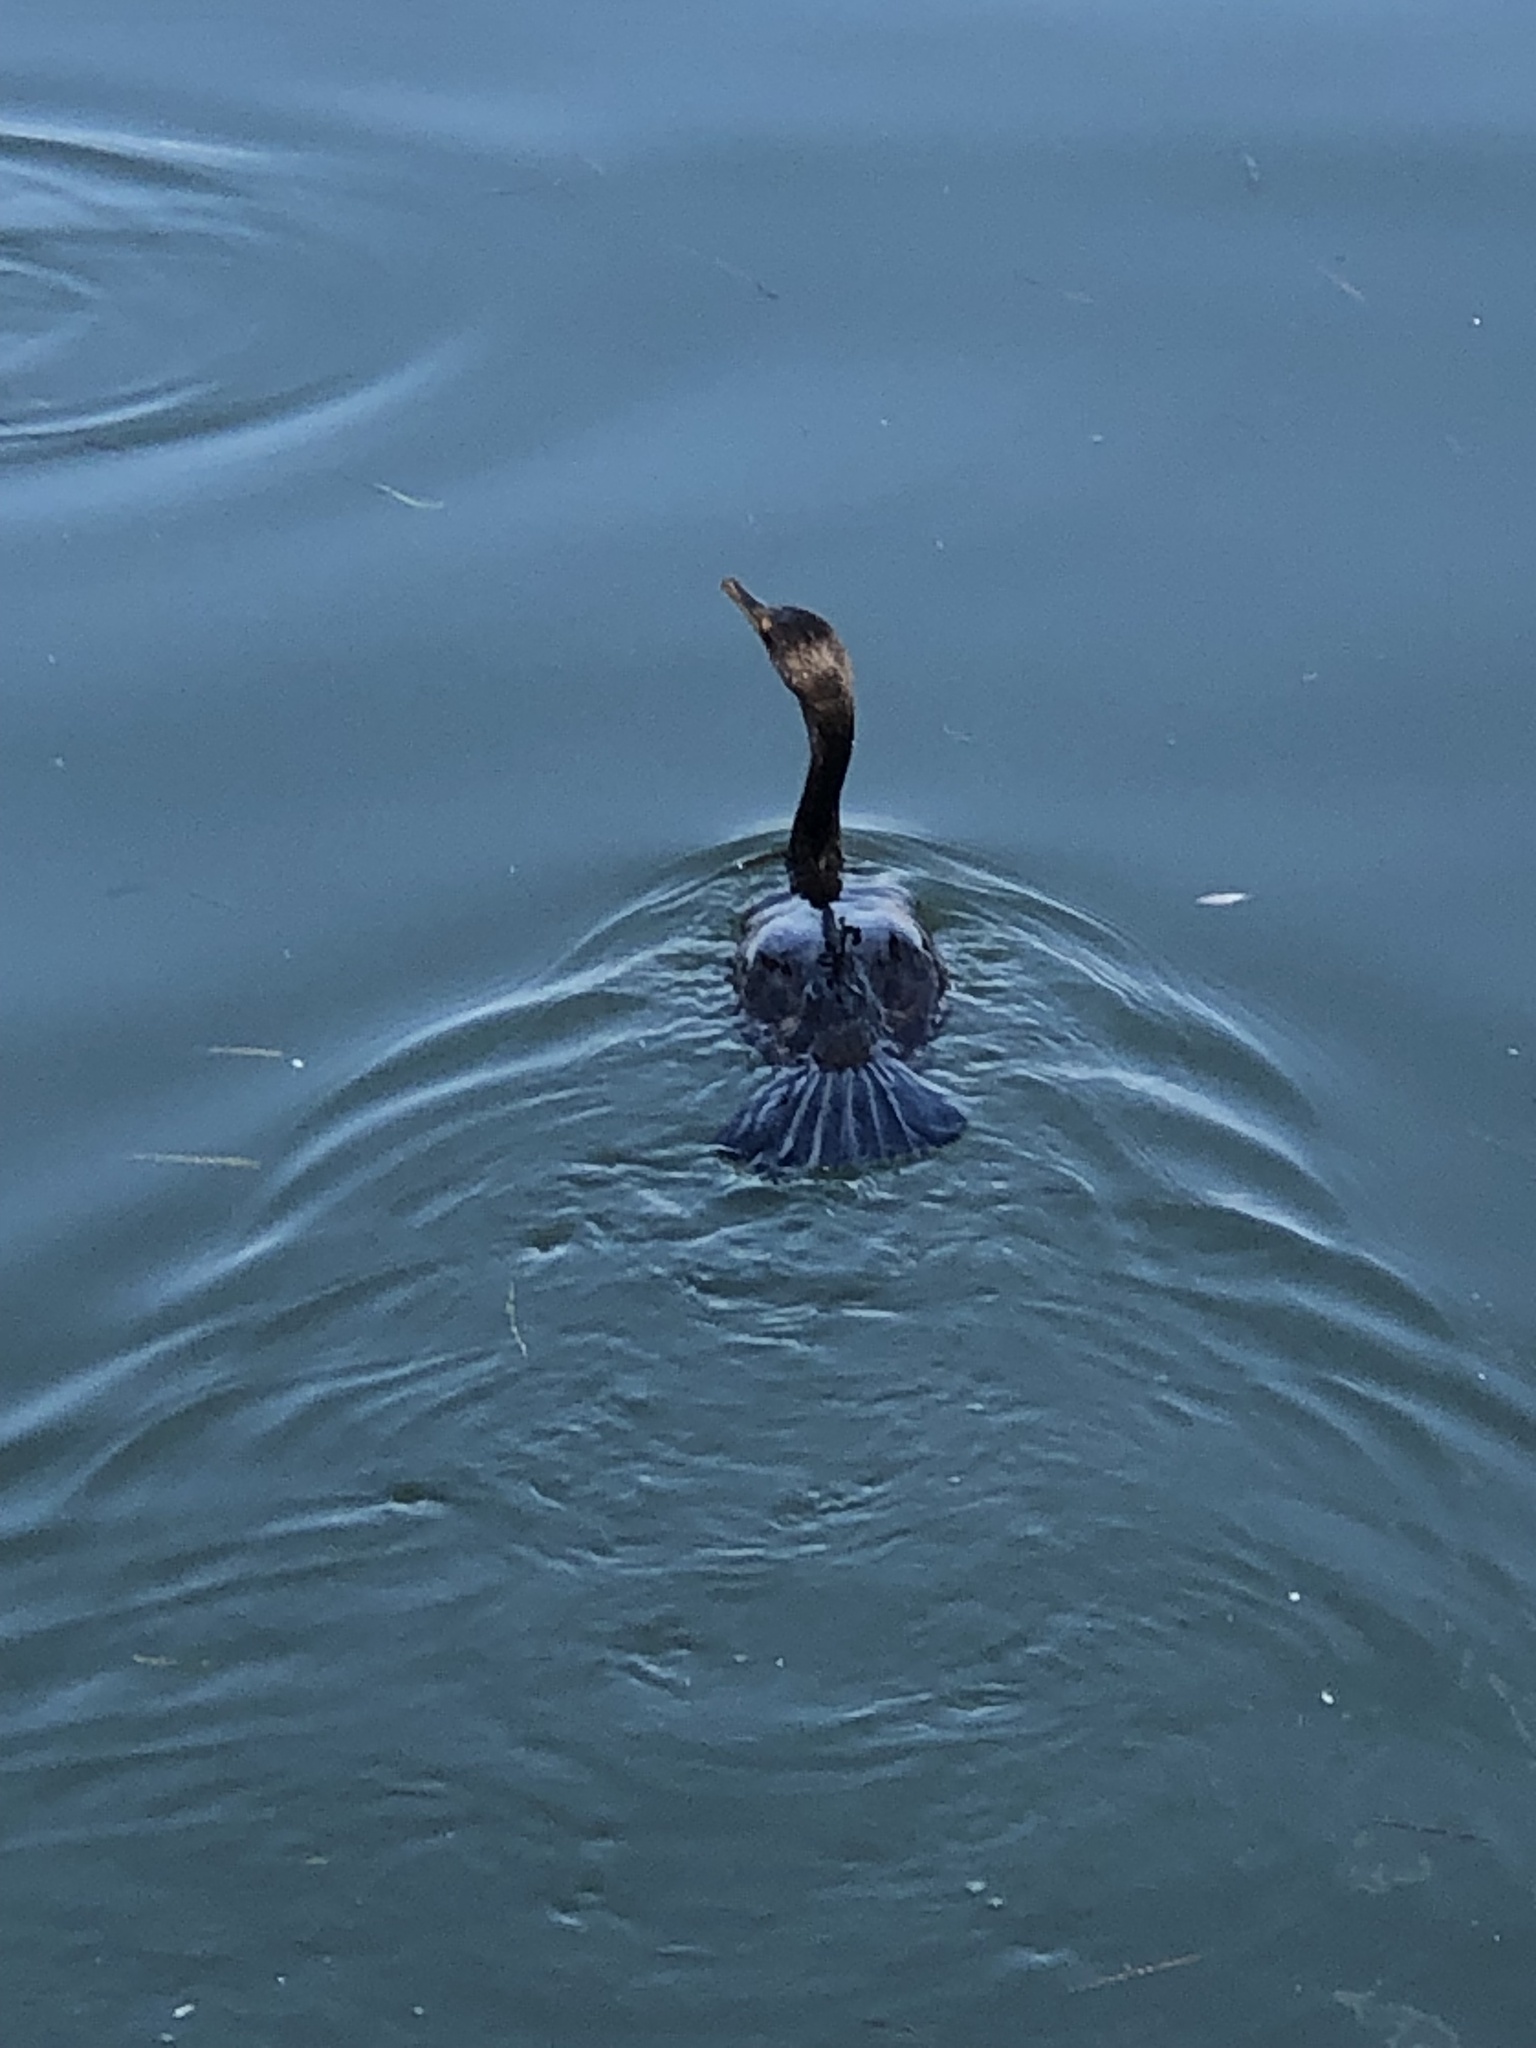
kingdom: Animalia
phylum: Chordata
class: Aves
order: Suliformes
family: Phalacrocoracidae
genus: Phalacrocorax
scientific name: Phalacrocorax auritus
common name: Double-crested cormorant
